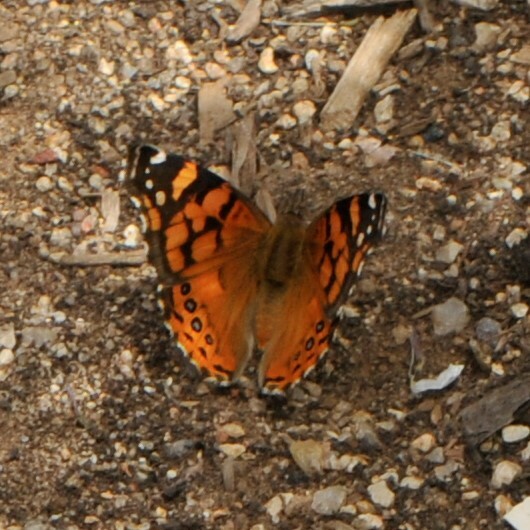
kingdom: Animalia
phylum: Arthropoda
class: Insecta
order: Lepidoptera
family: Nymphalidae
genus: Vanessa
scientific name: Vanessa annabella
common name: West coast lady
